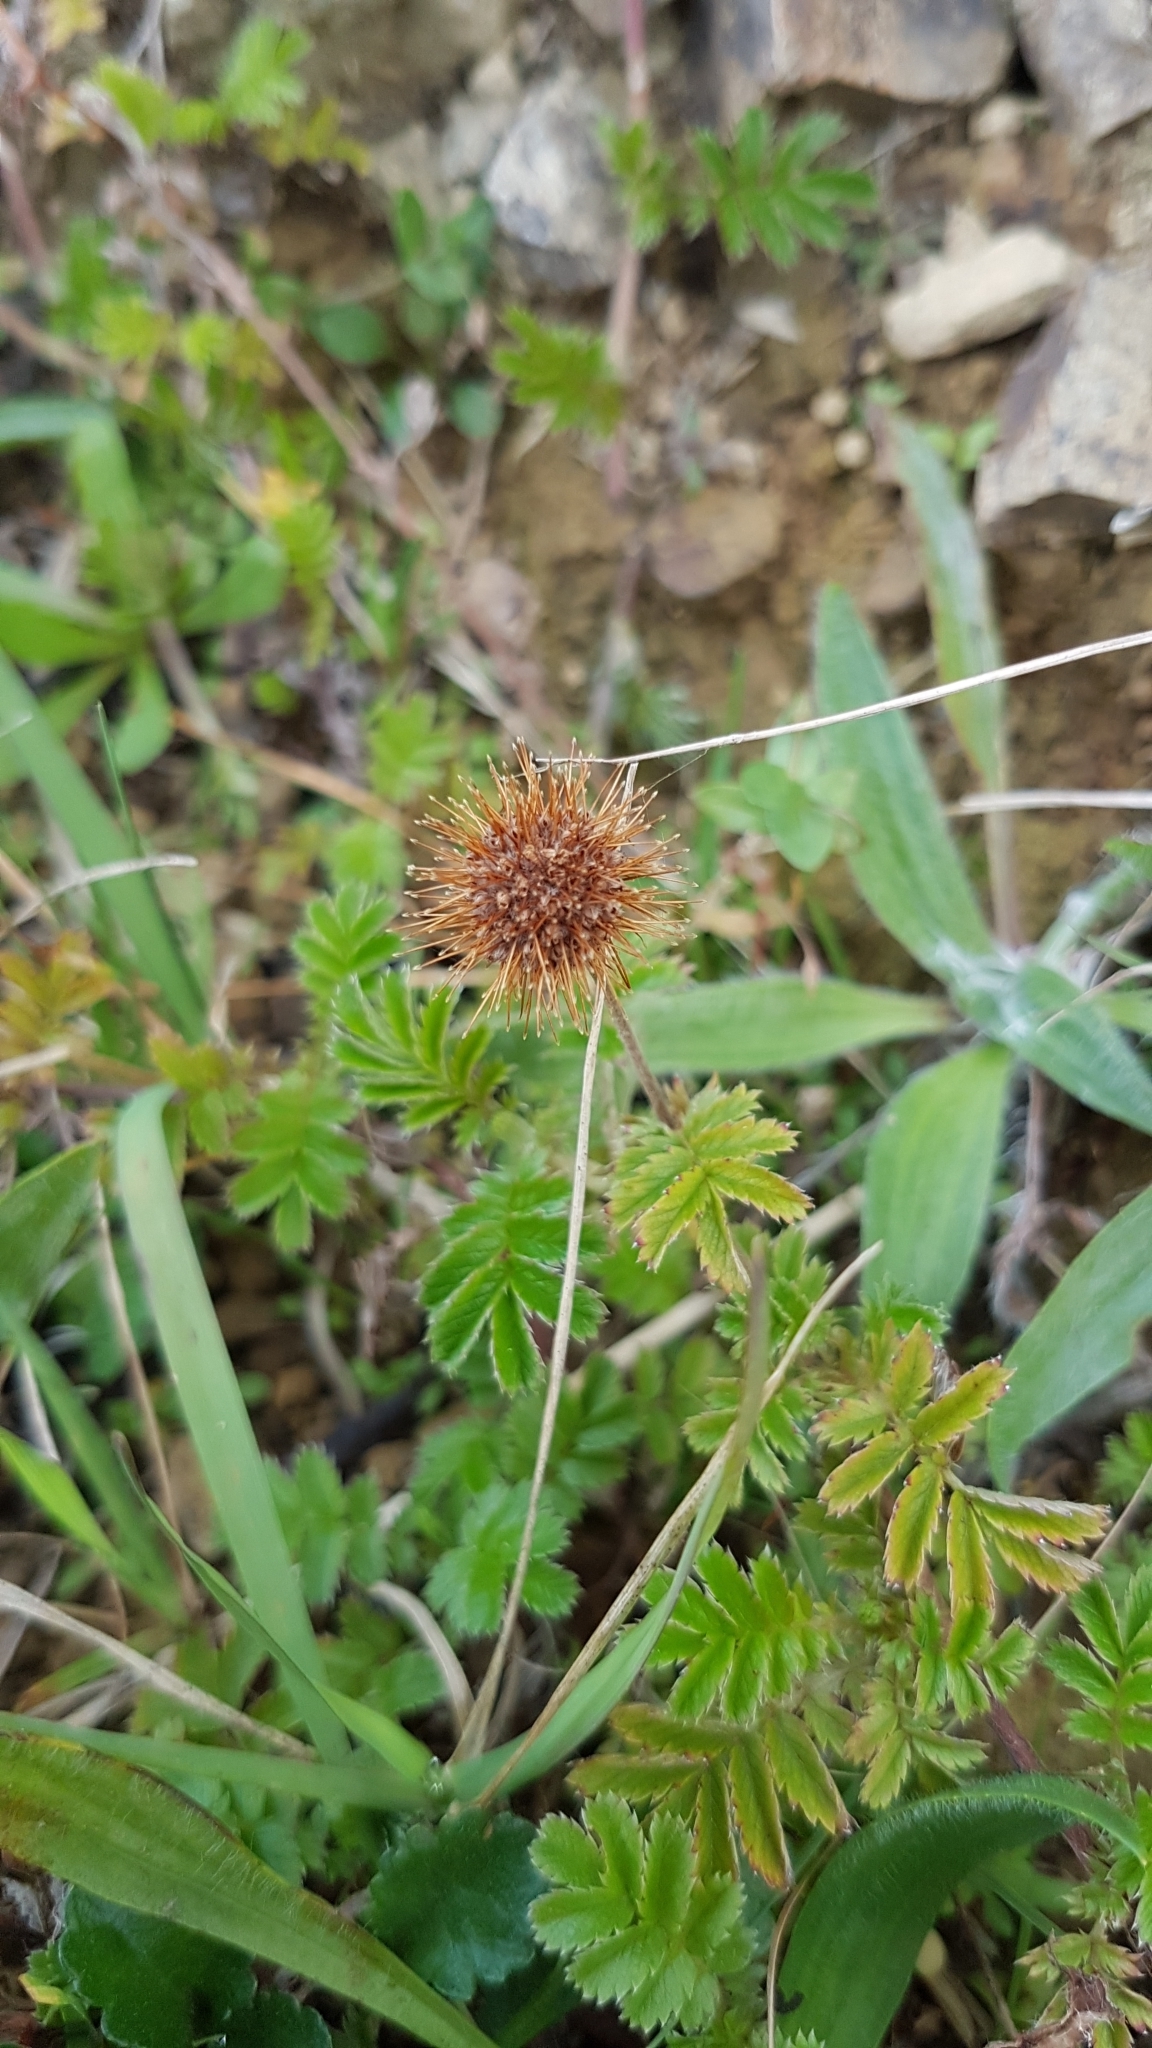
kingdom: Plantae
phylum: Tracheophyta
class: Magnoliopsida
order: Rosales
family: Rosaceae
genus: Acaena
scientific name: Acaena anserinifolia
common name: Bronze pirri-pirri-bur
